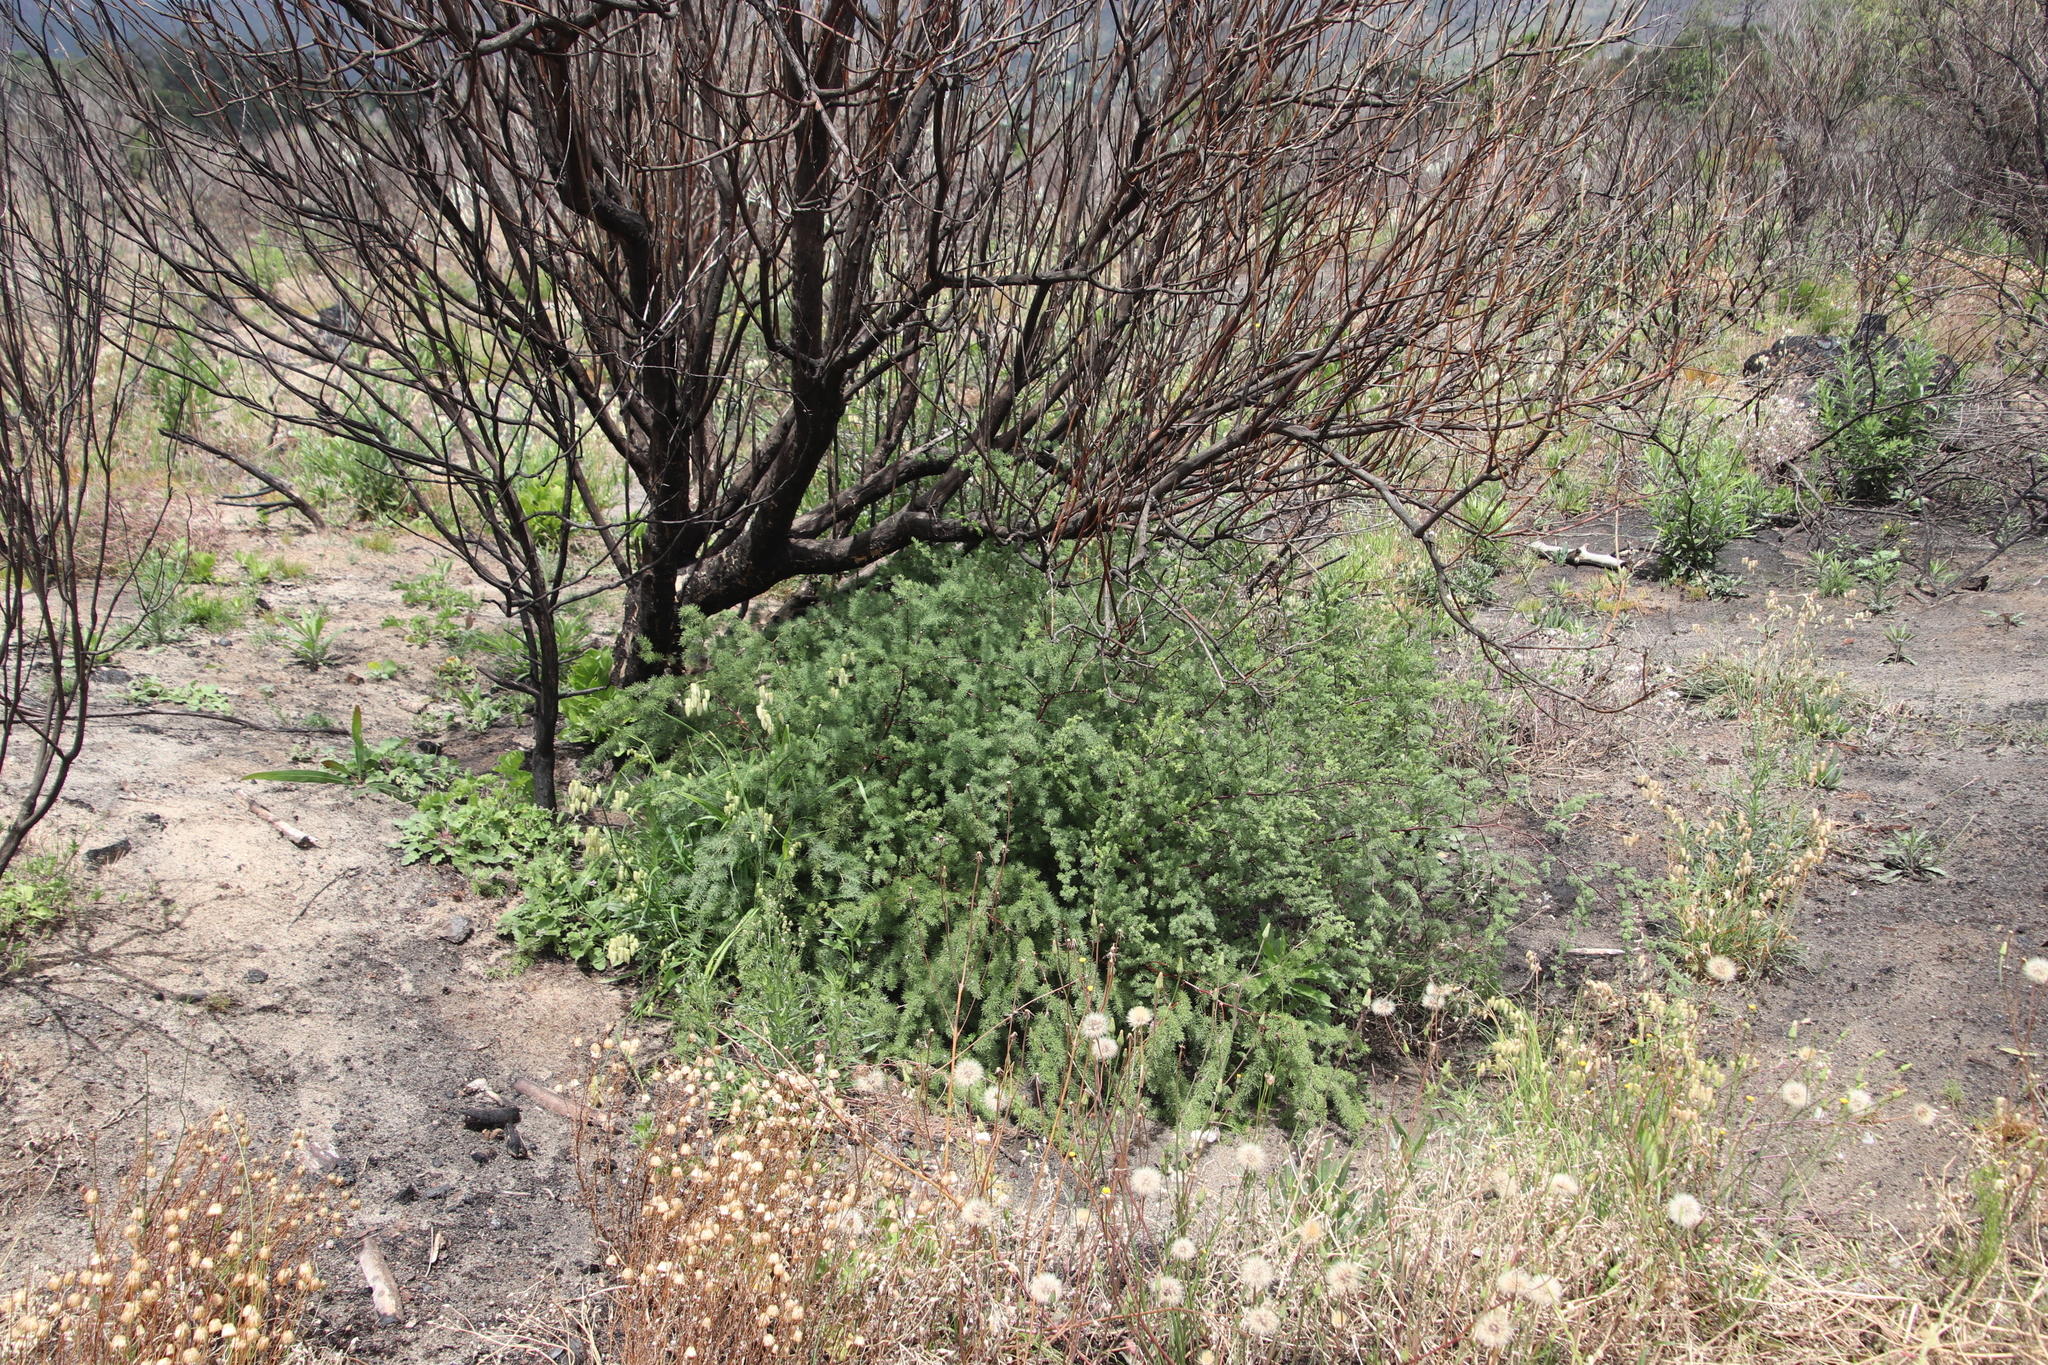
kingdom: Plantae
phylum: Tracheophyta
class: Liliopsida
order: Asparagales
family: Asparagaceae
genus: Asparagus
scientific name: Asparagus rubicundus
